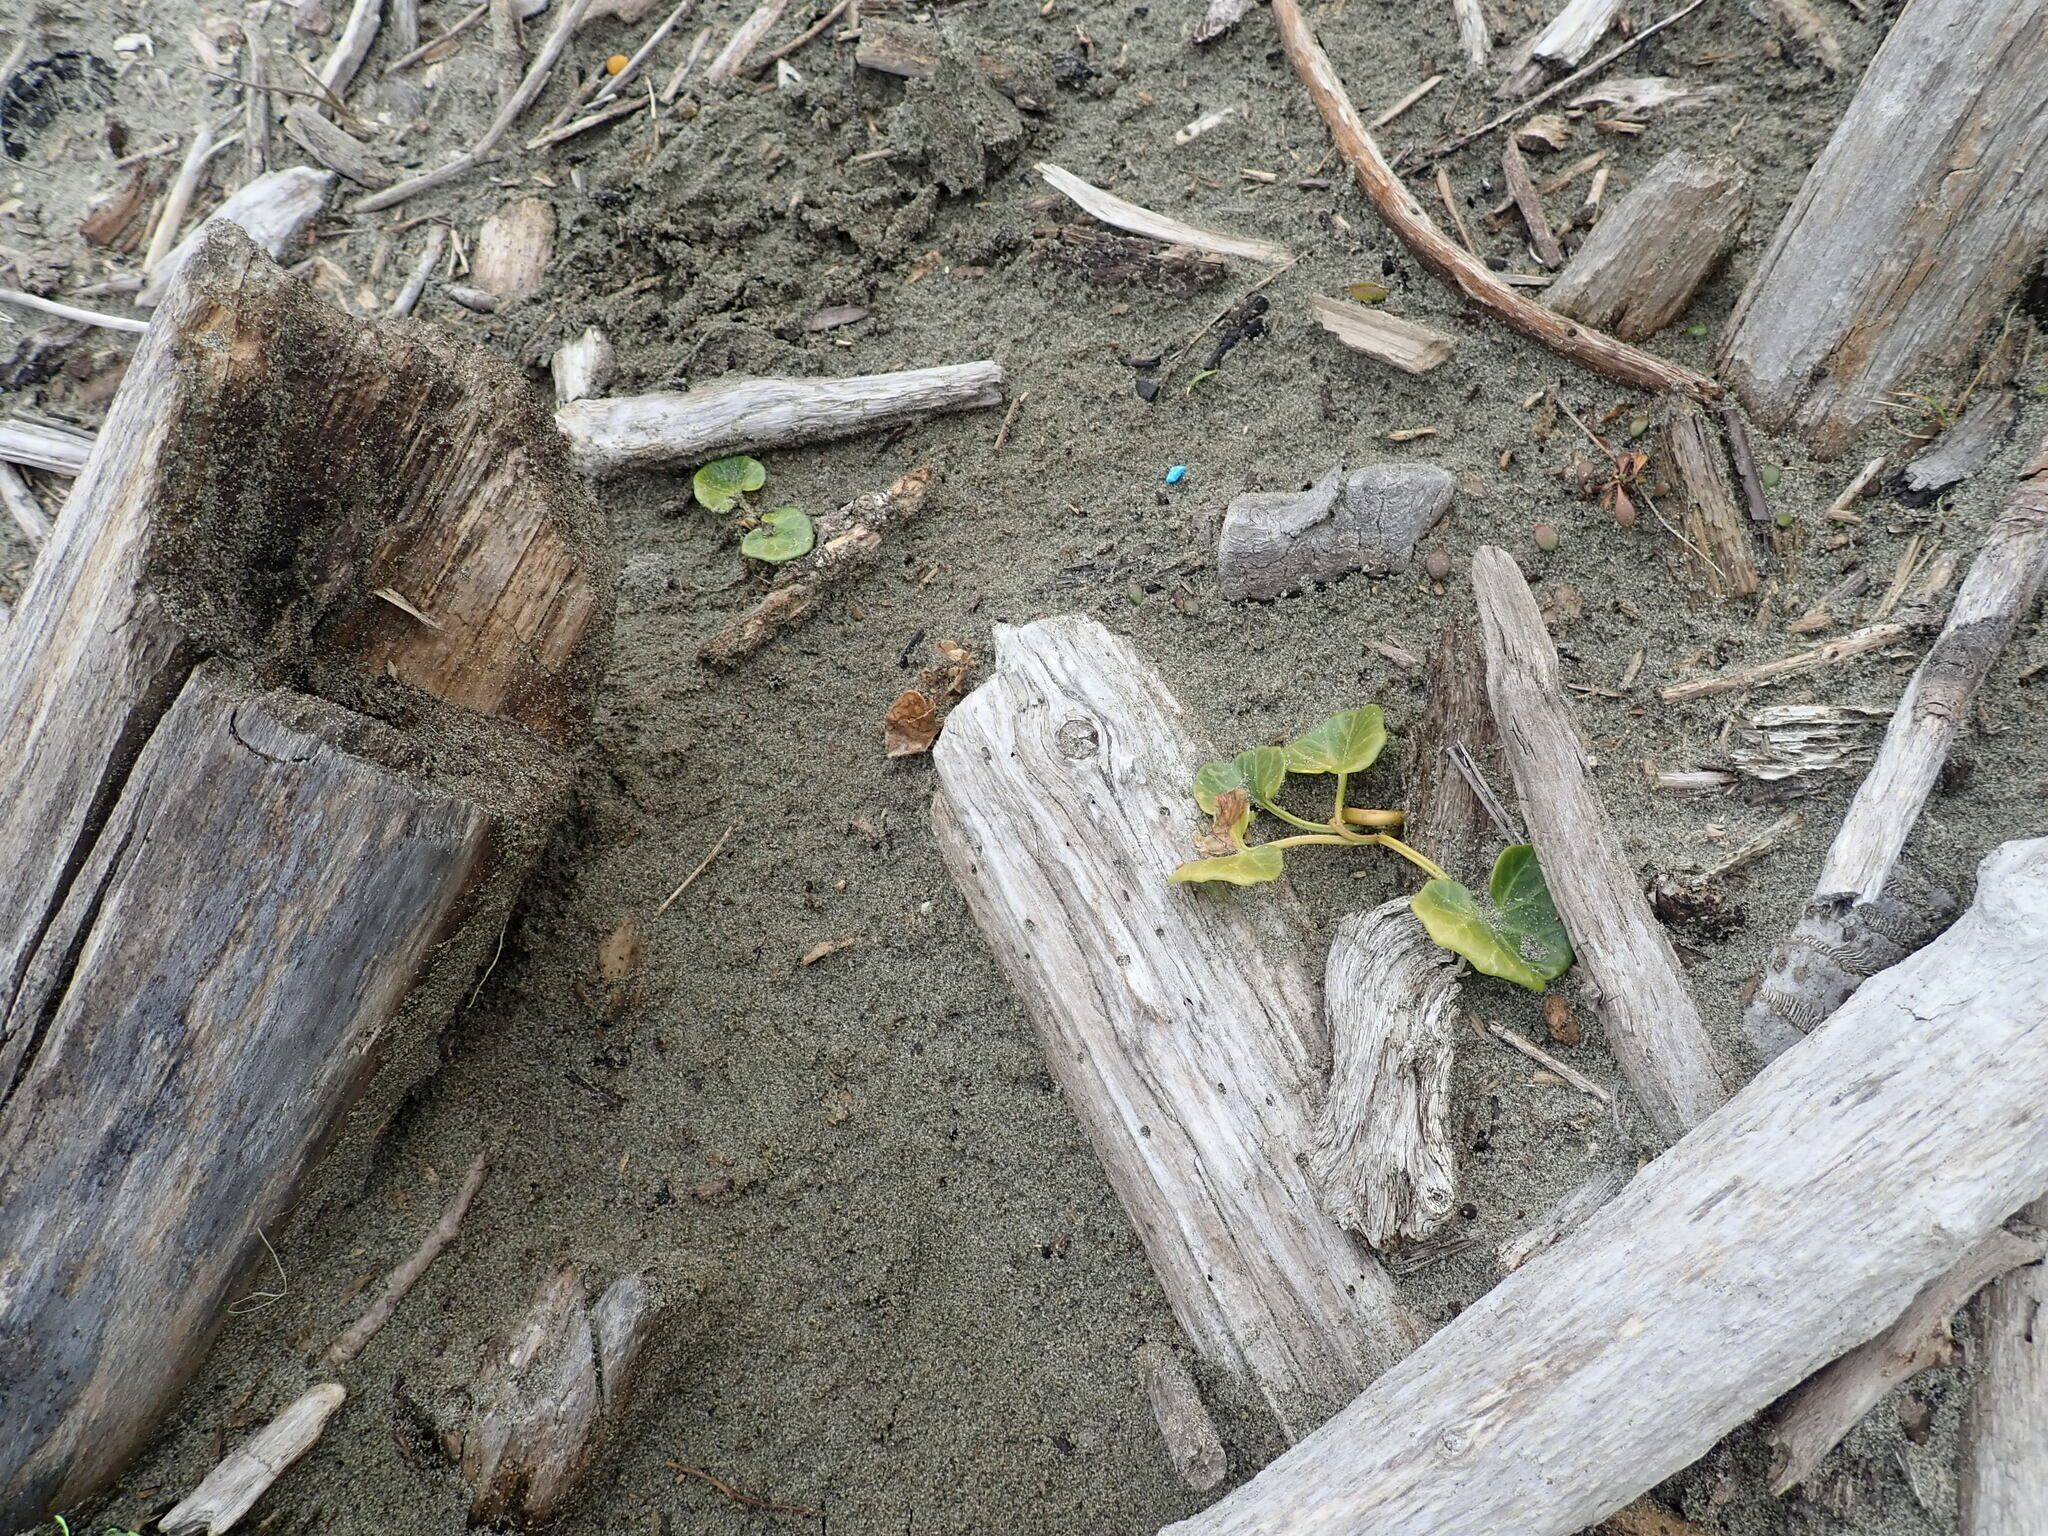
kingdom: Plantae
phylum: Tracheophyta
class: Magnoliopsida
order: Solanales
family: Convolvulaceae
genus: Calystegia
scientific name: Calystegia soldanella
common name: Sea bindweed
